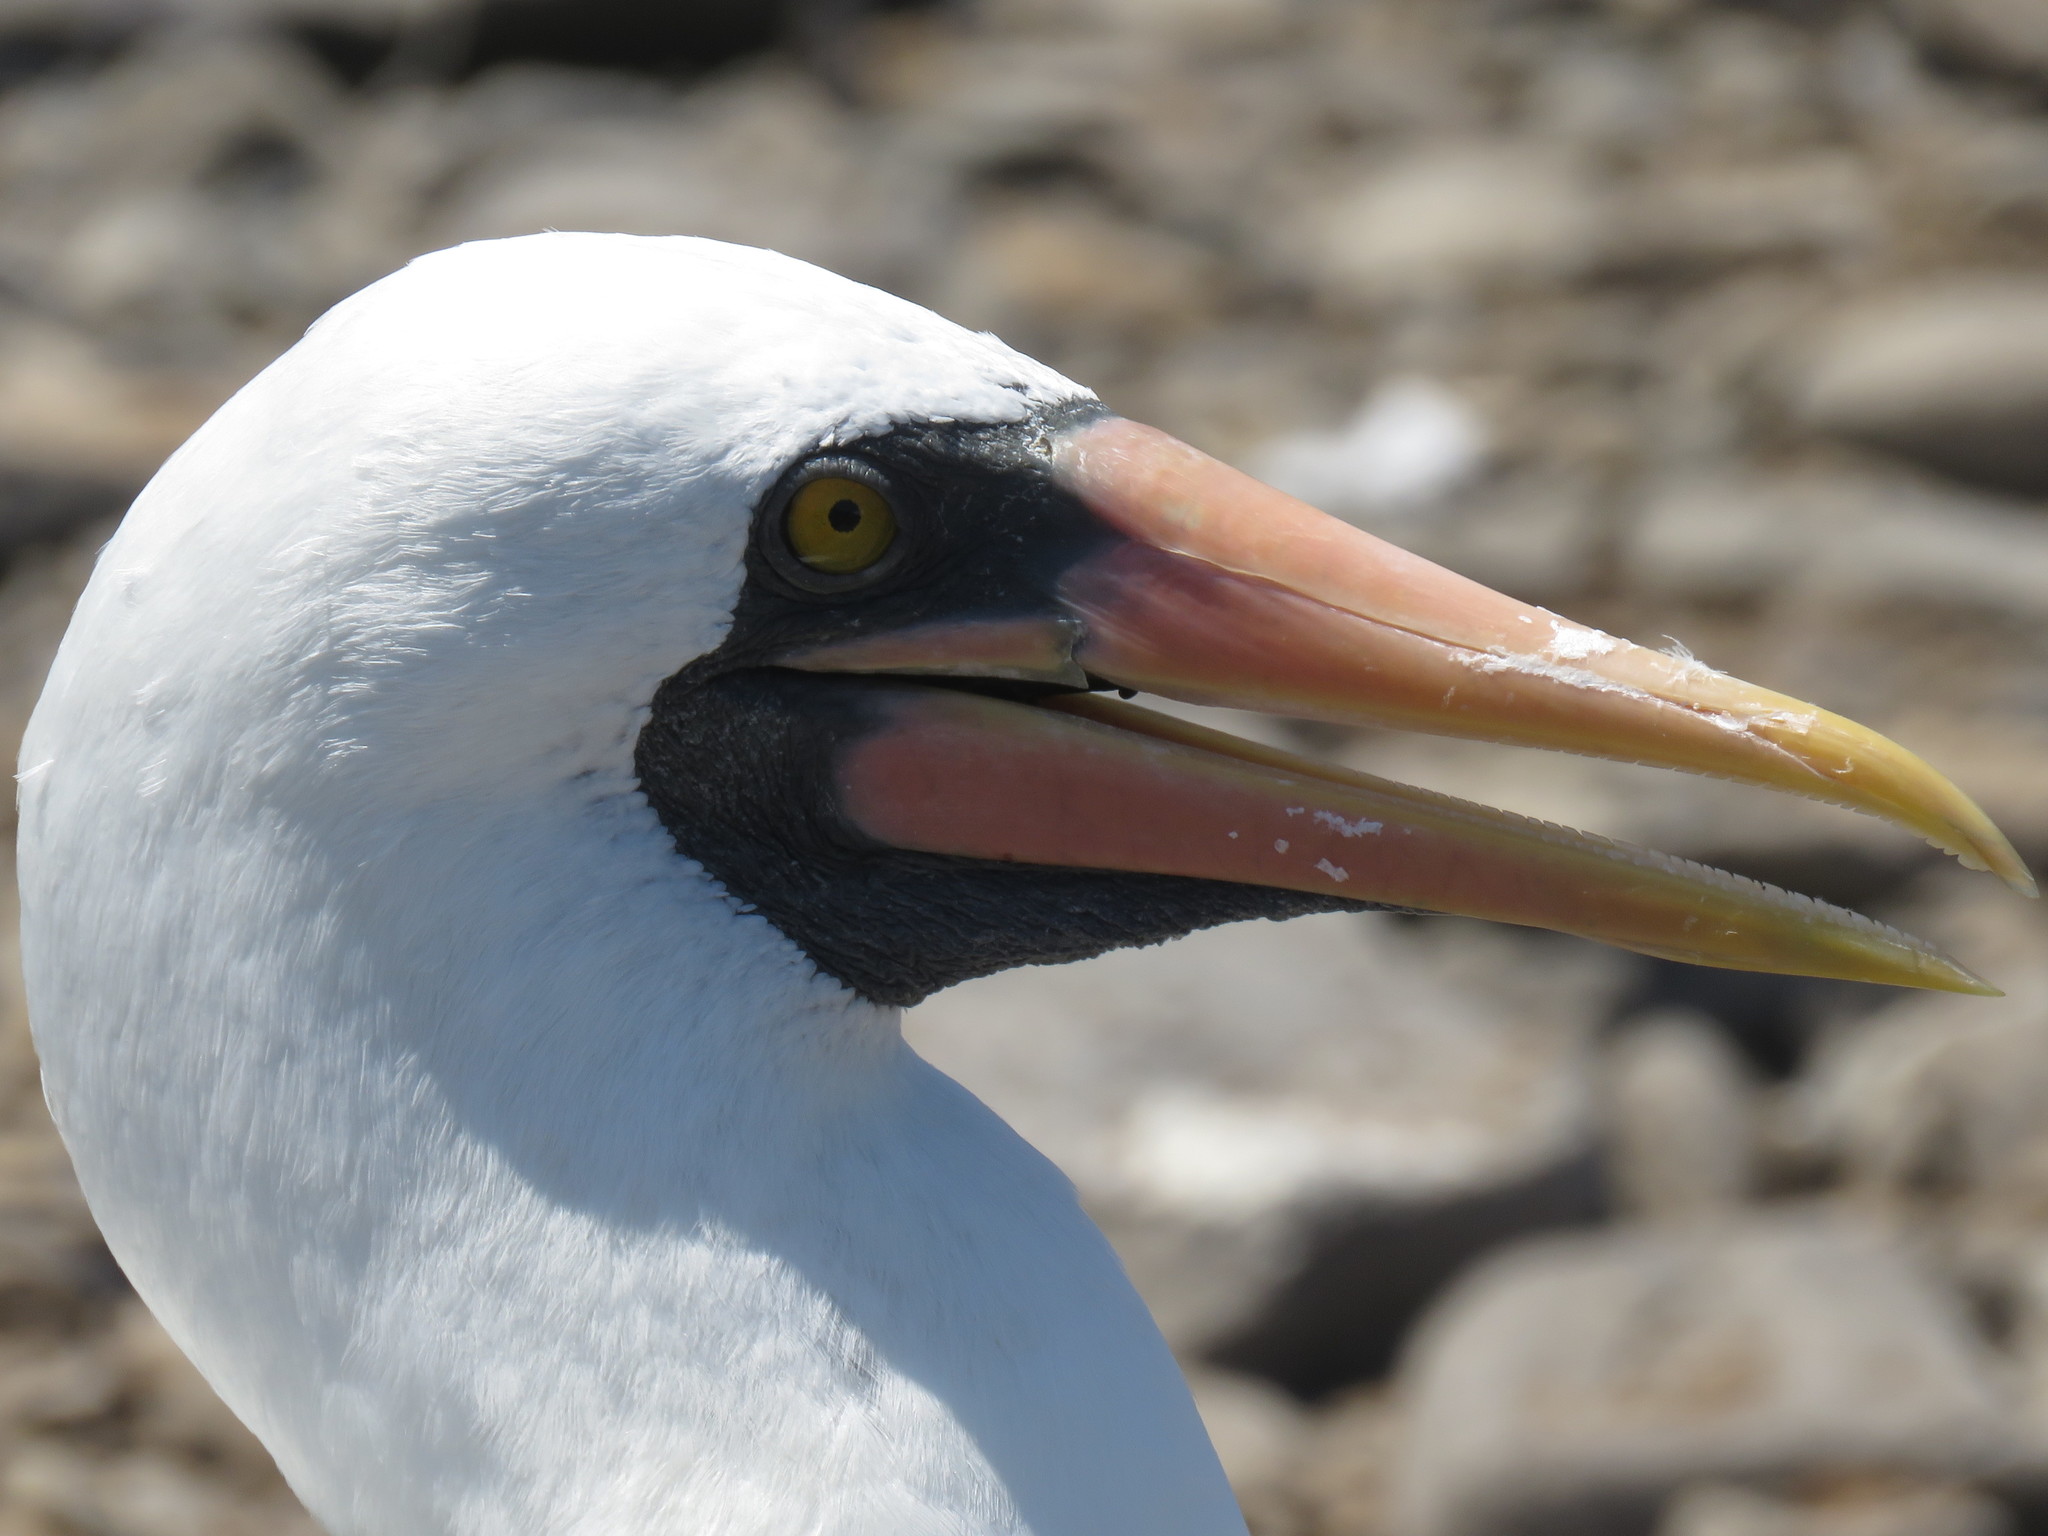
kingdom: Animalia
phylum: Chordata
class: Aves
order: Suliformes
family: Sulidae
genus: Sula
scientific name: Sula granti
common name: Nazca booby
